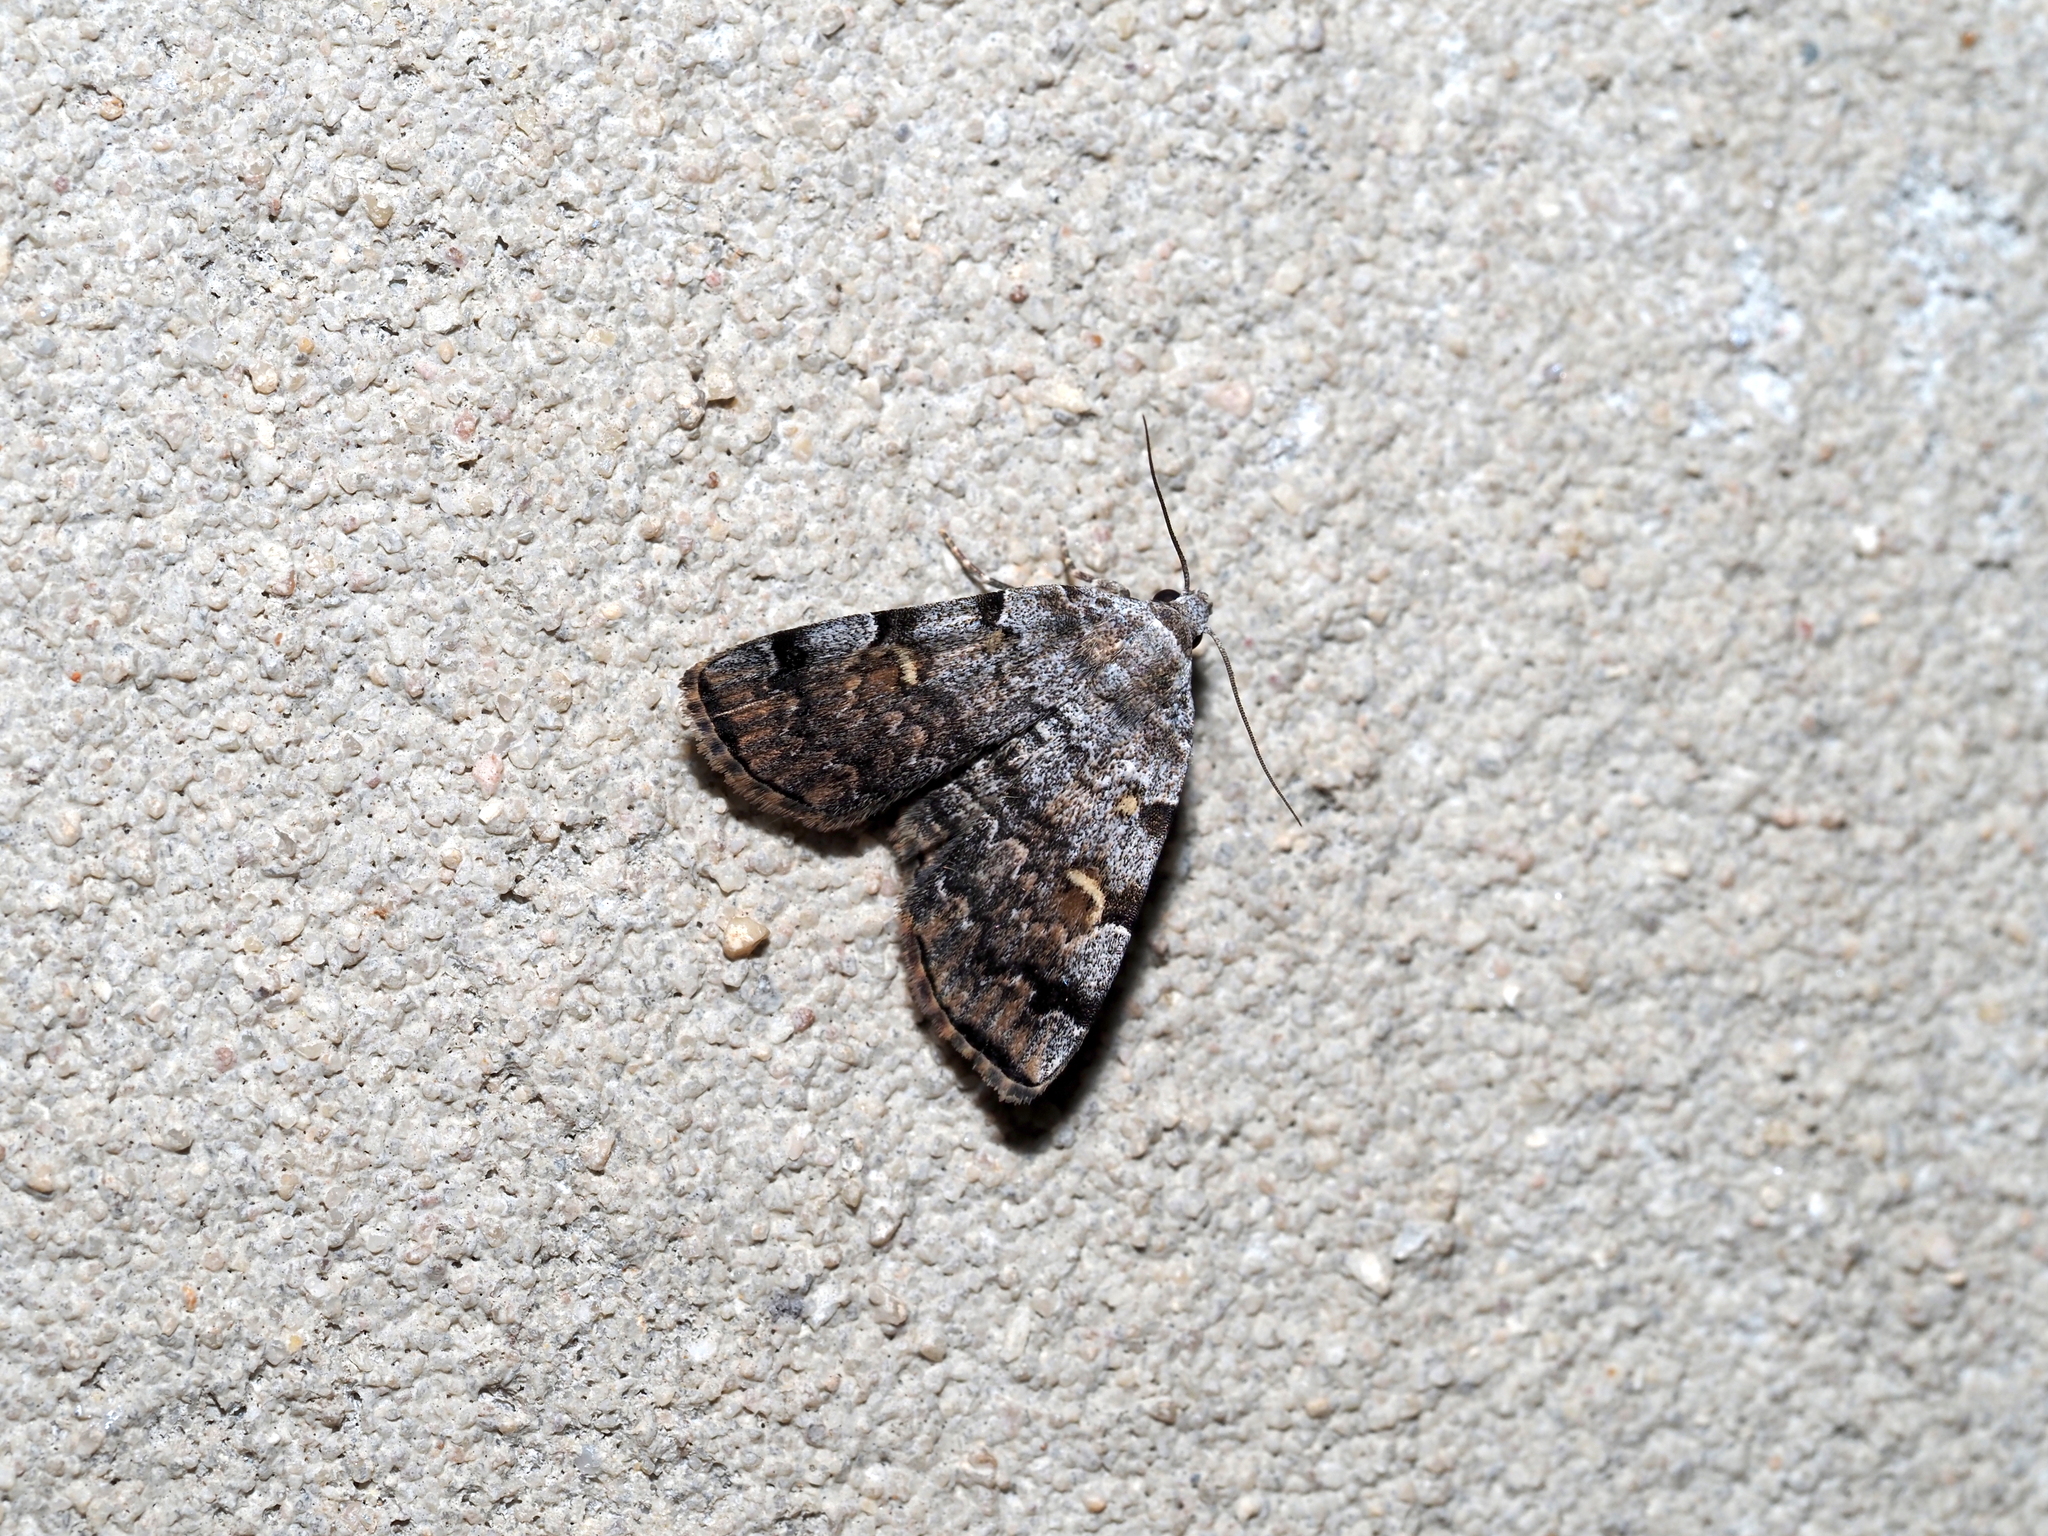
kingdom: Animalia
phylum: Arthropoda
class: Insecta
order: Lepidoptera
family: Erebidae
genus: Idia
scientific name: Idia americalis
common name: American idia moth
